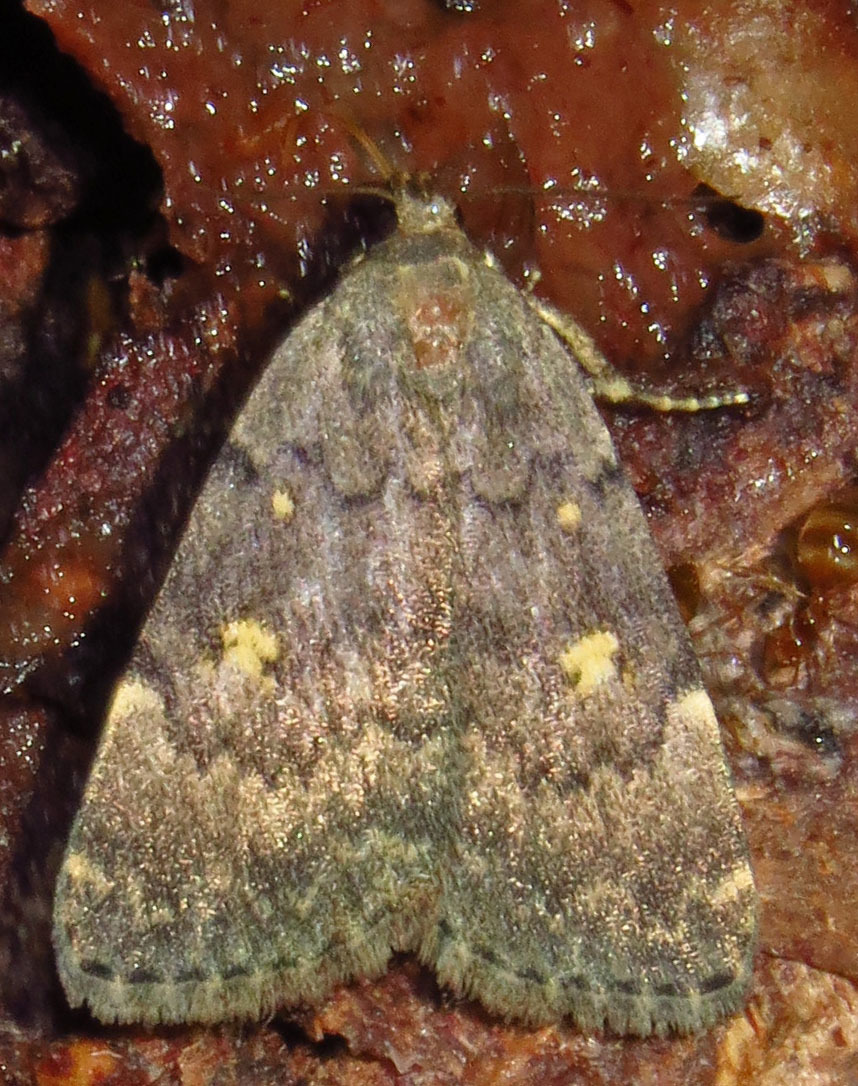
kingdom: Animalia
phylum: Arthropoda
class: Insecta
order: Lepidoptera
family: Erebidae
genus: Idia
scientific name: Idia aemula
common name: Common idia moth
